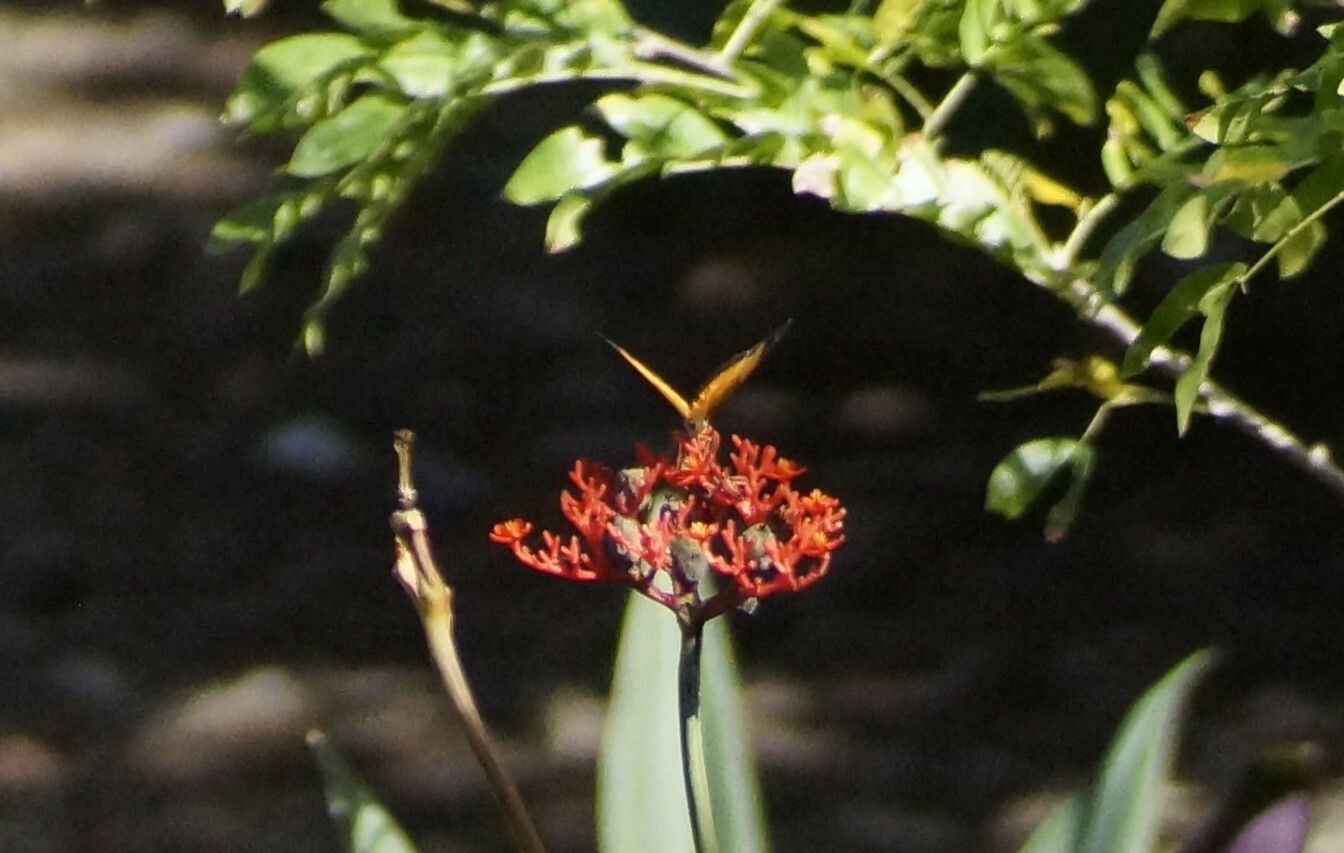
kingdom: Animalia
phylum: Arthropoda
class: Insecta
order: Lepidoptera
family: Nymphalidae
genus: Cupha
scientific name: Cupha prosope
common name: Bordered rustic
